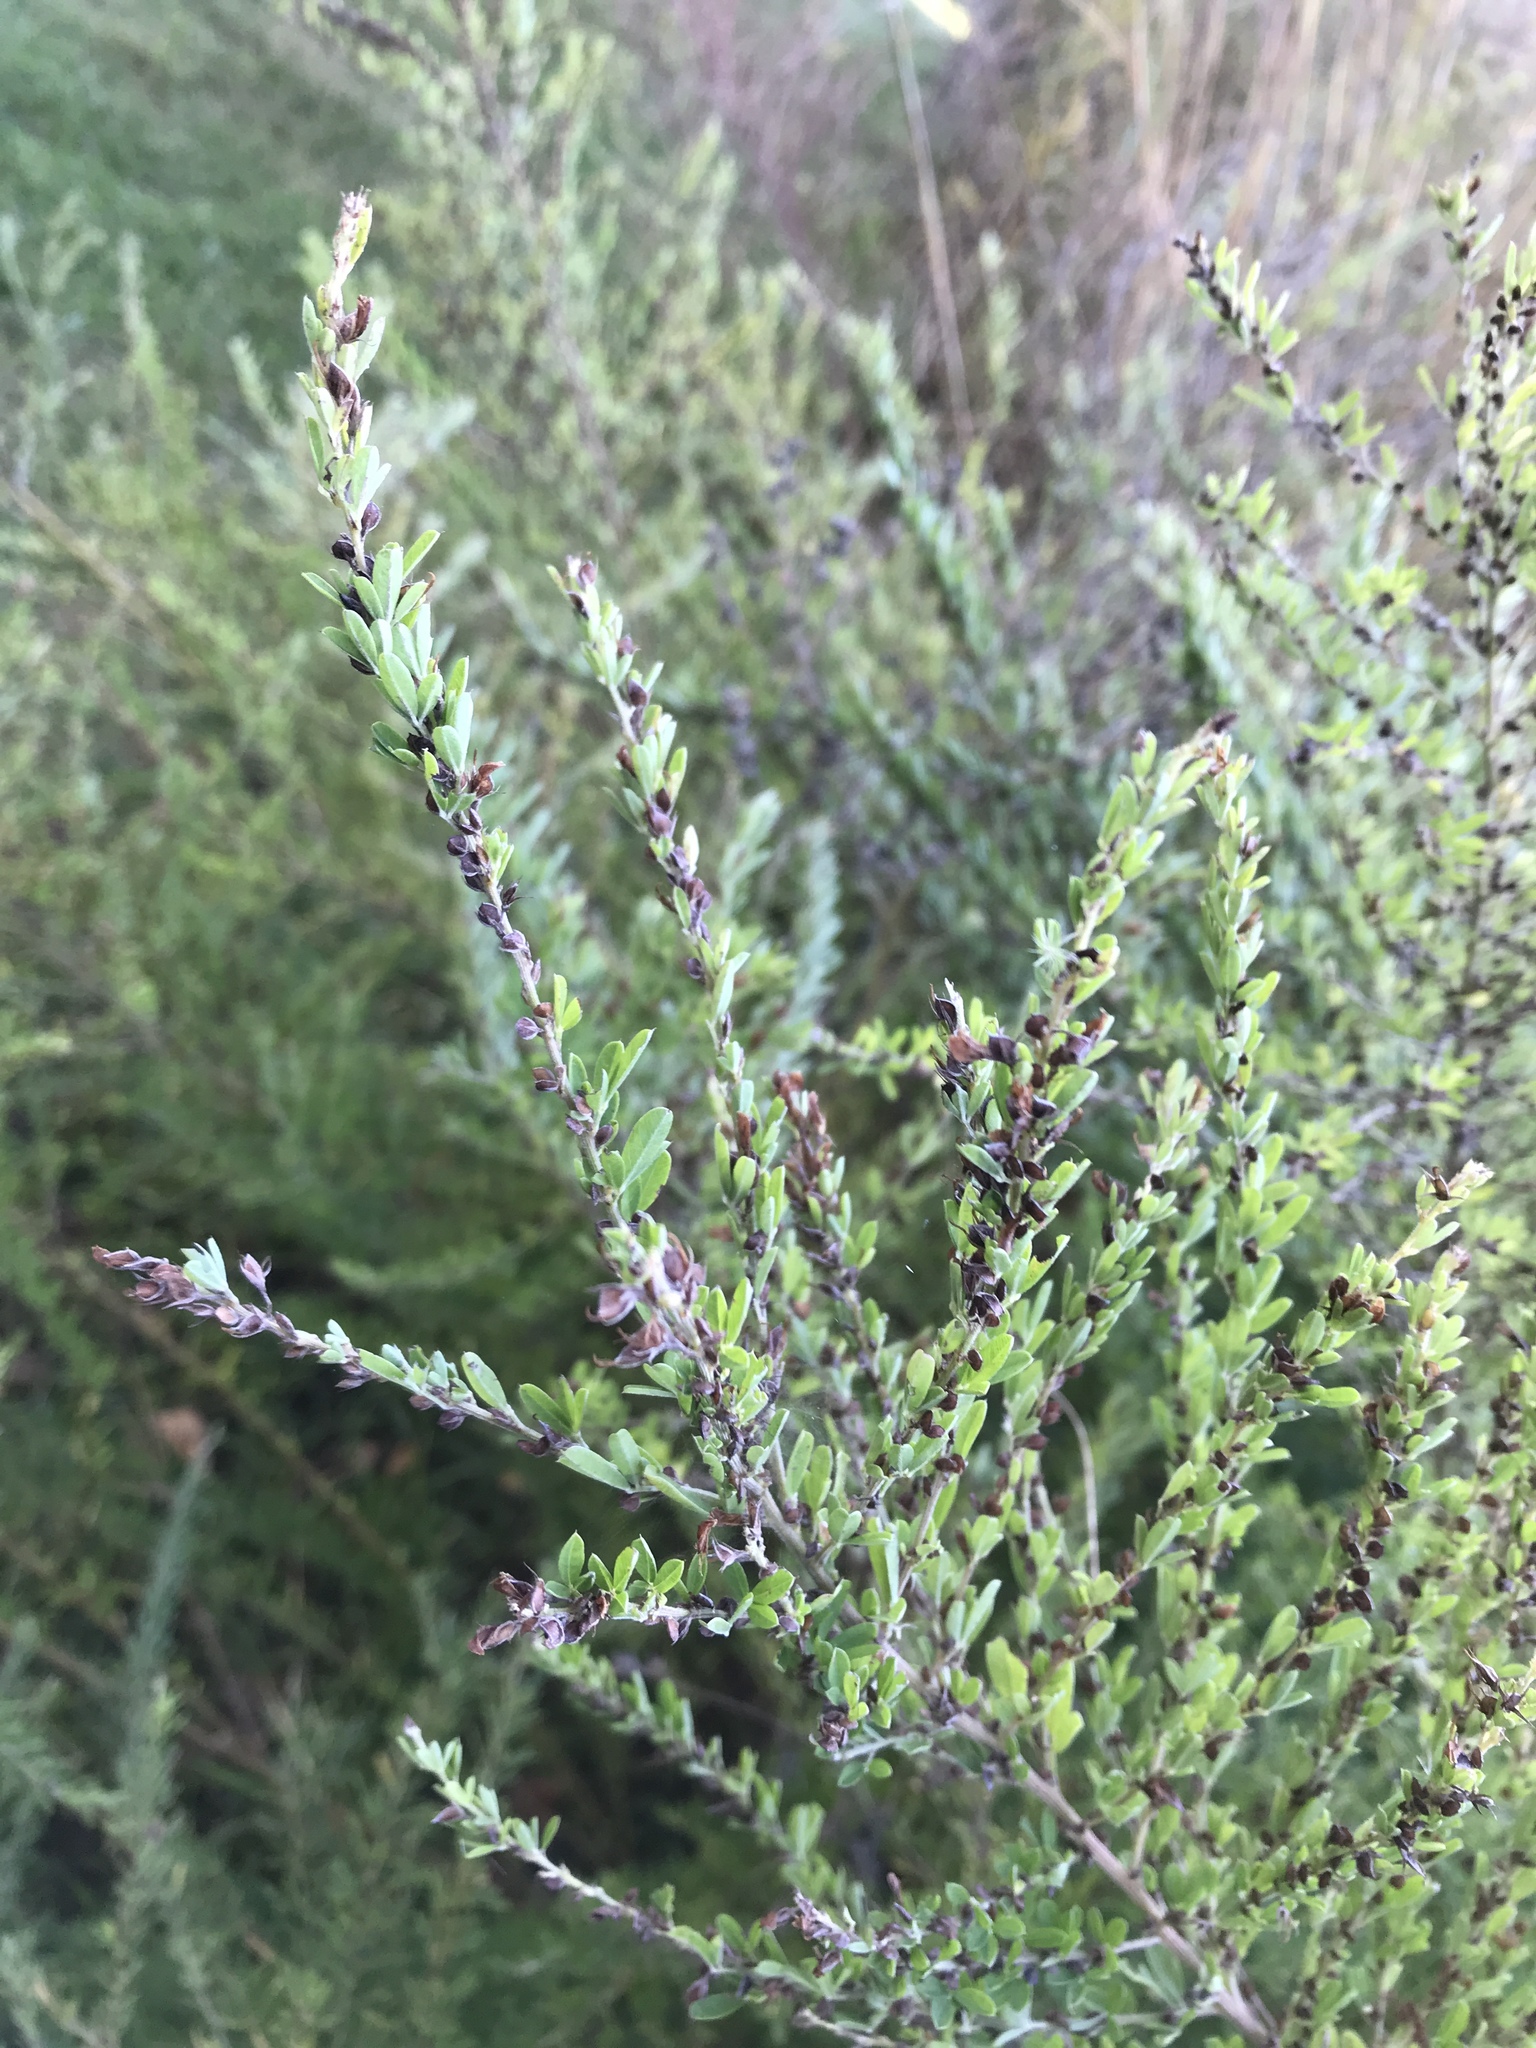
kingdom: Plantae
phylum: Tracheophyta
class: Magnoliopsida
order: Fabales
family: Fabaceae
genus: Lespedeza
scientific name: Lespedeza cuneata
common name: Chinese bush-clover
